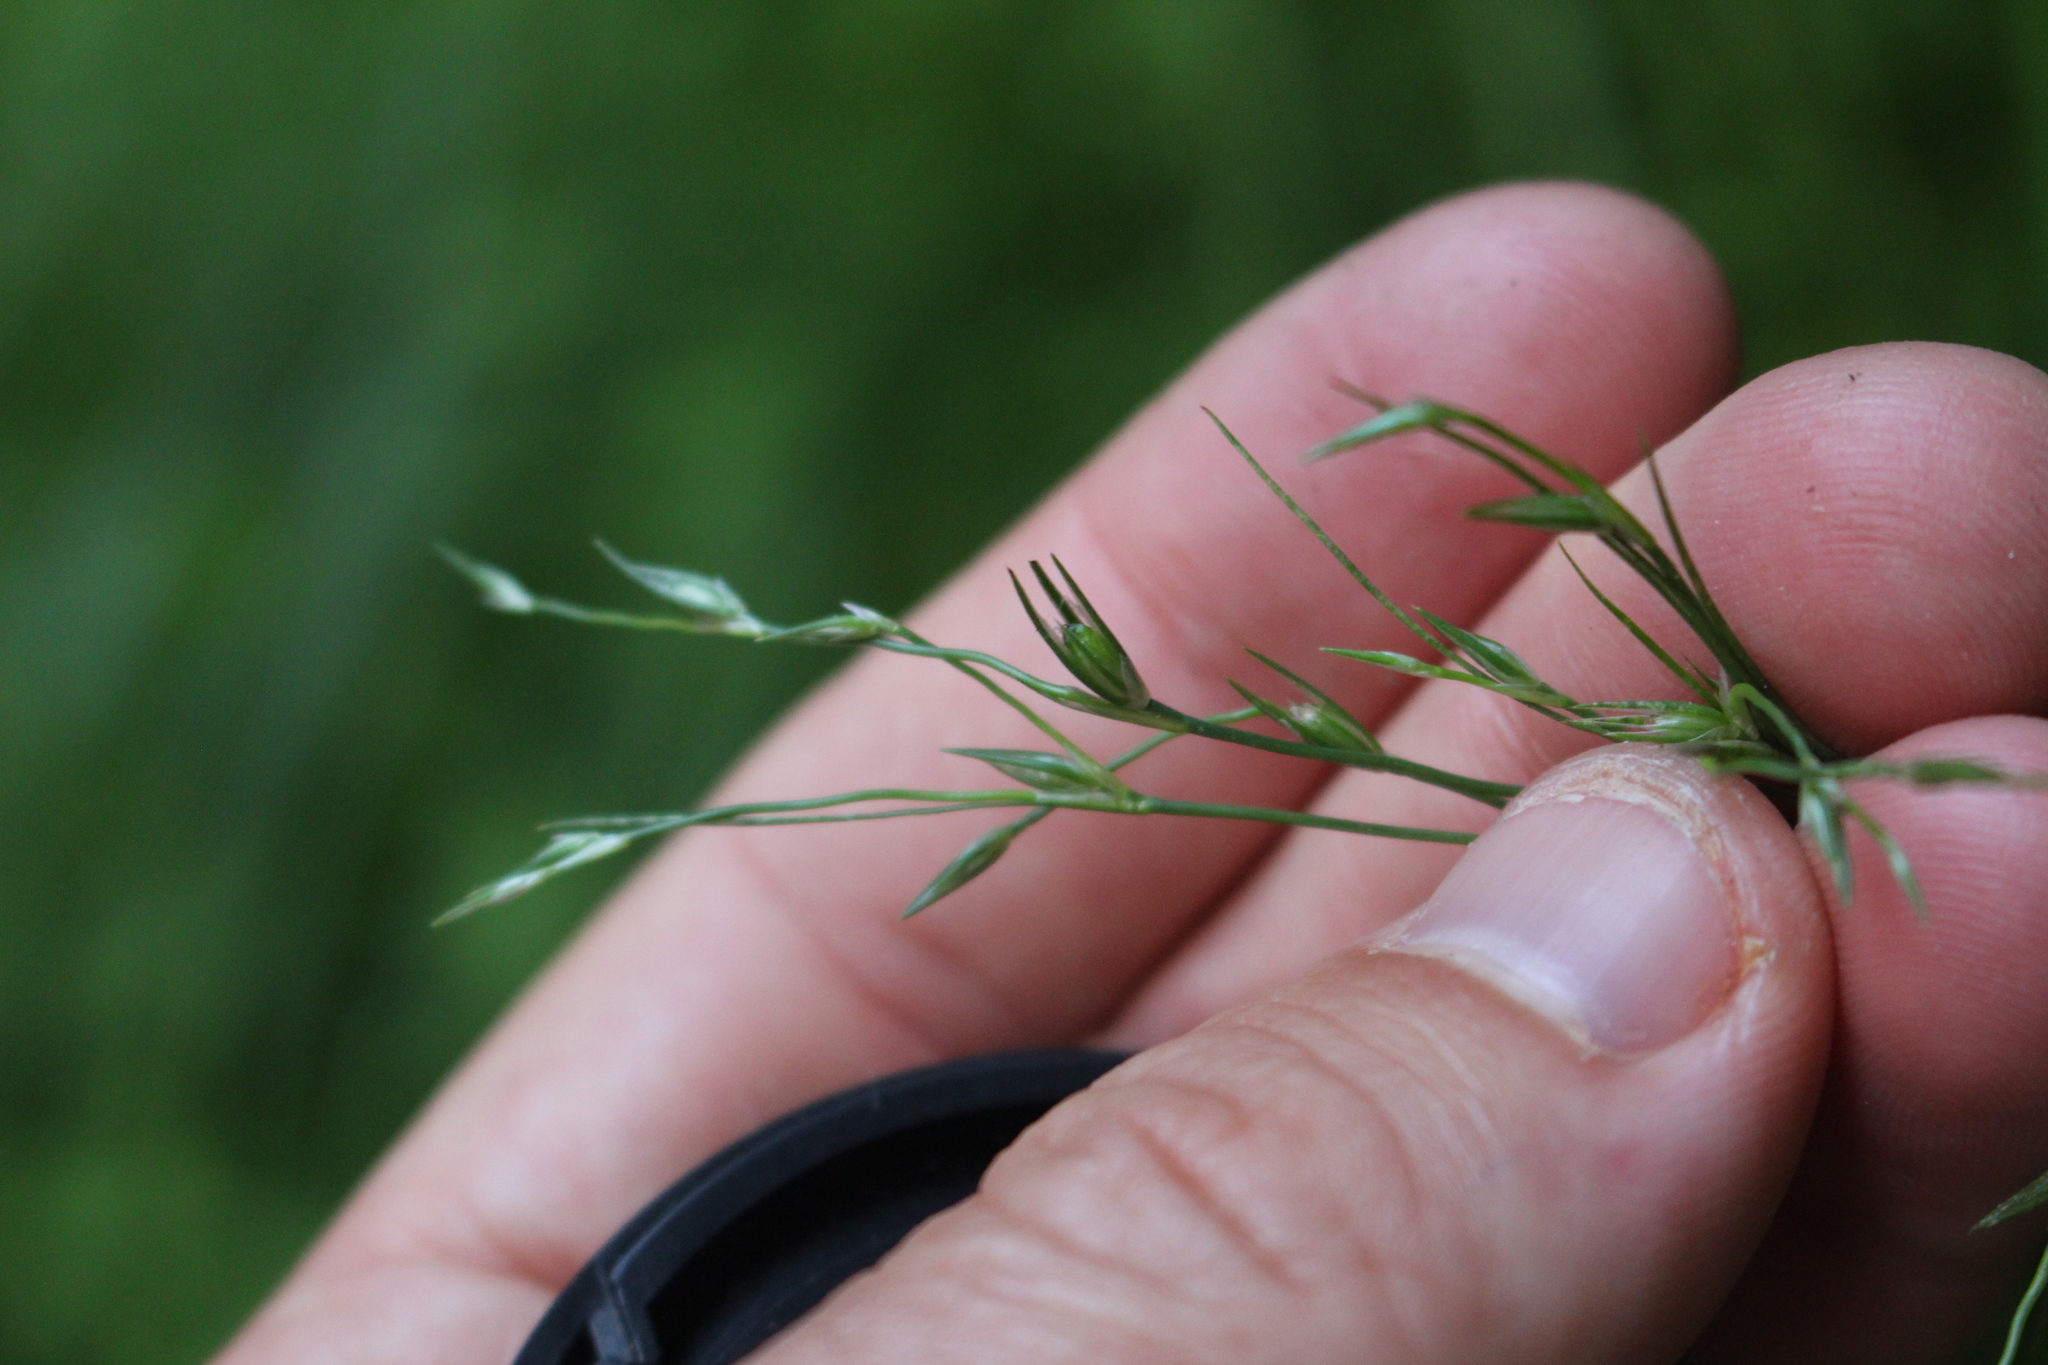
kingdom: Plantae
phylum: Tracheophyta
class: Liliopsida
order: Poales
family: Juncaceae
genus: Juncus
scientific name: Juncus bufonius
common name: Toad rush
